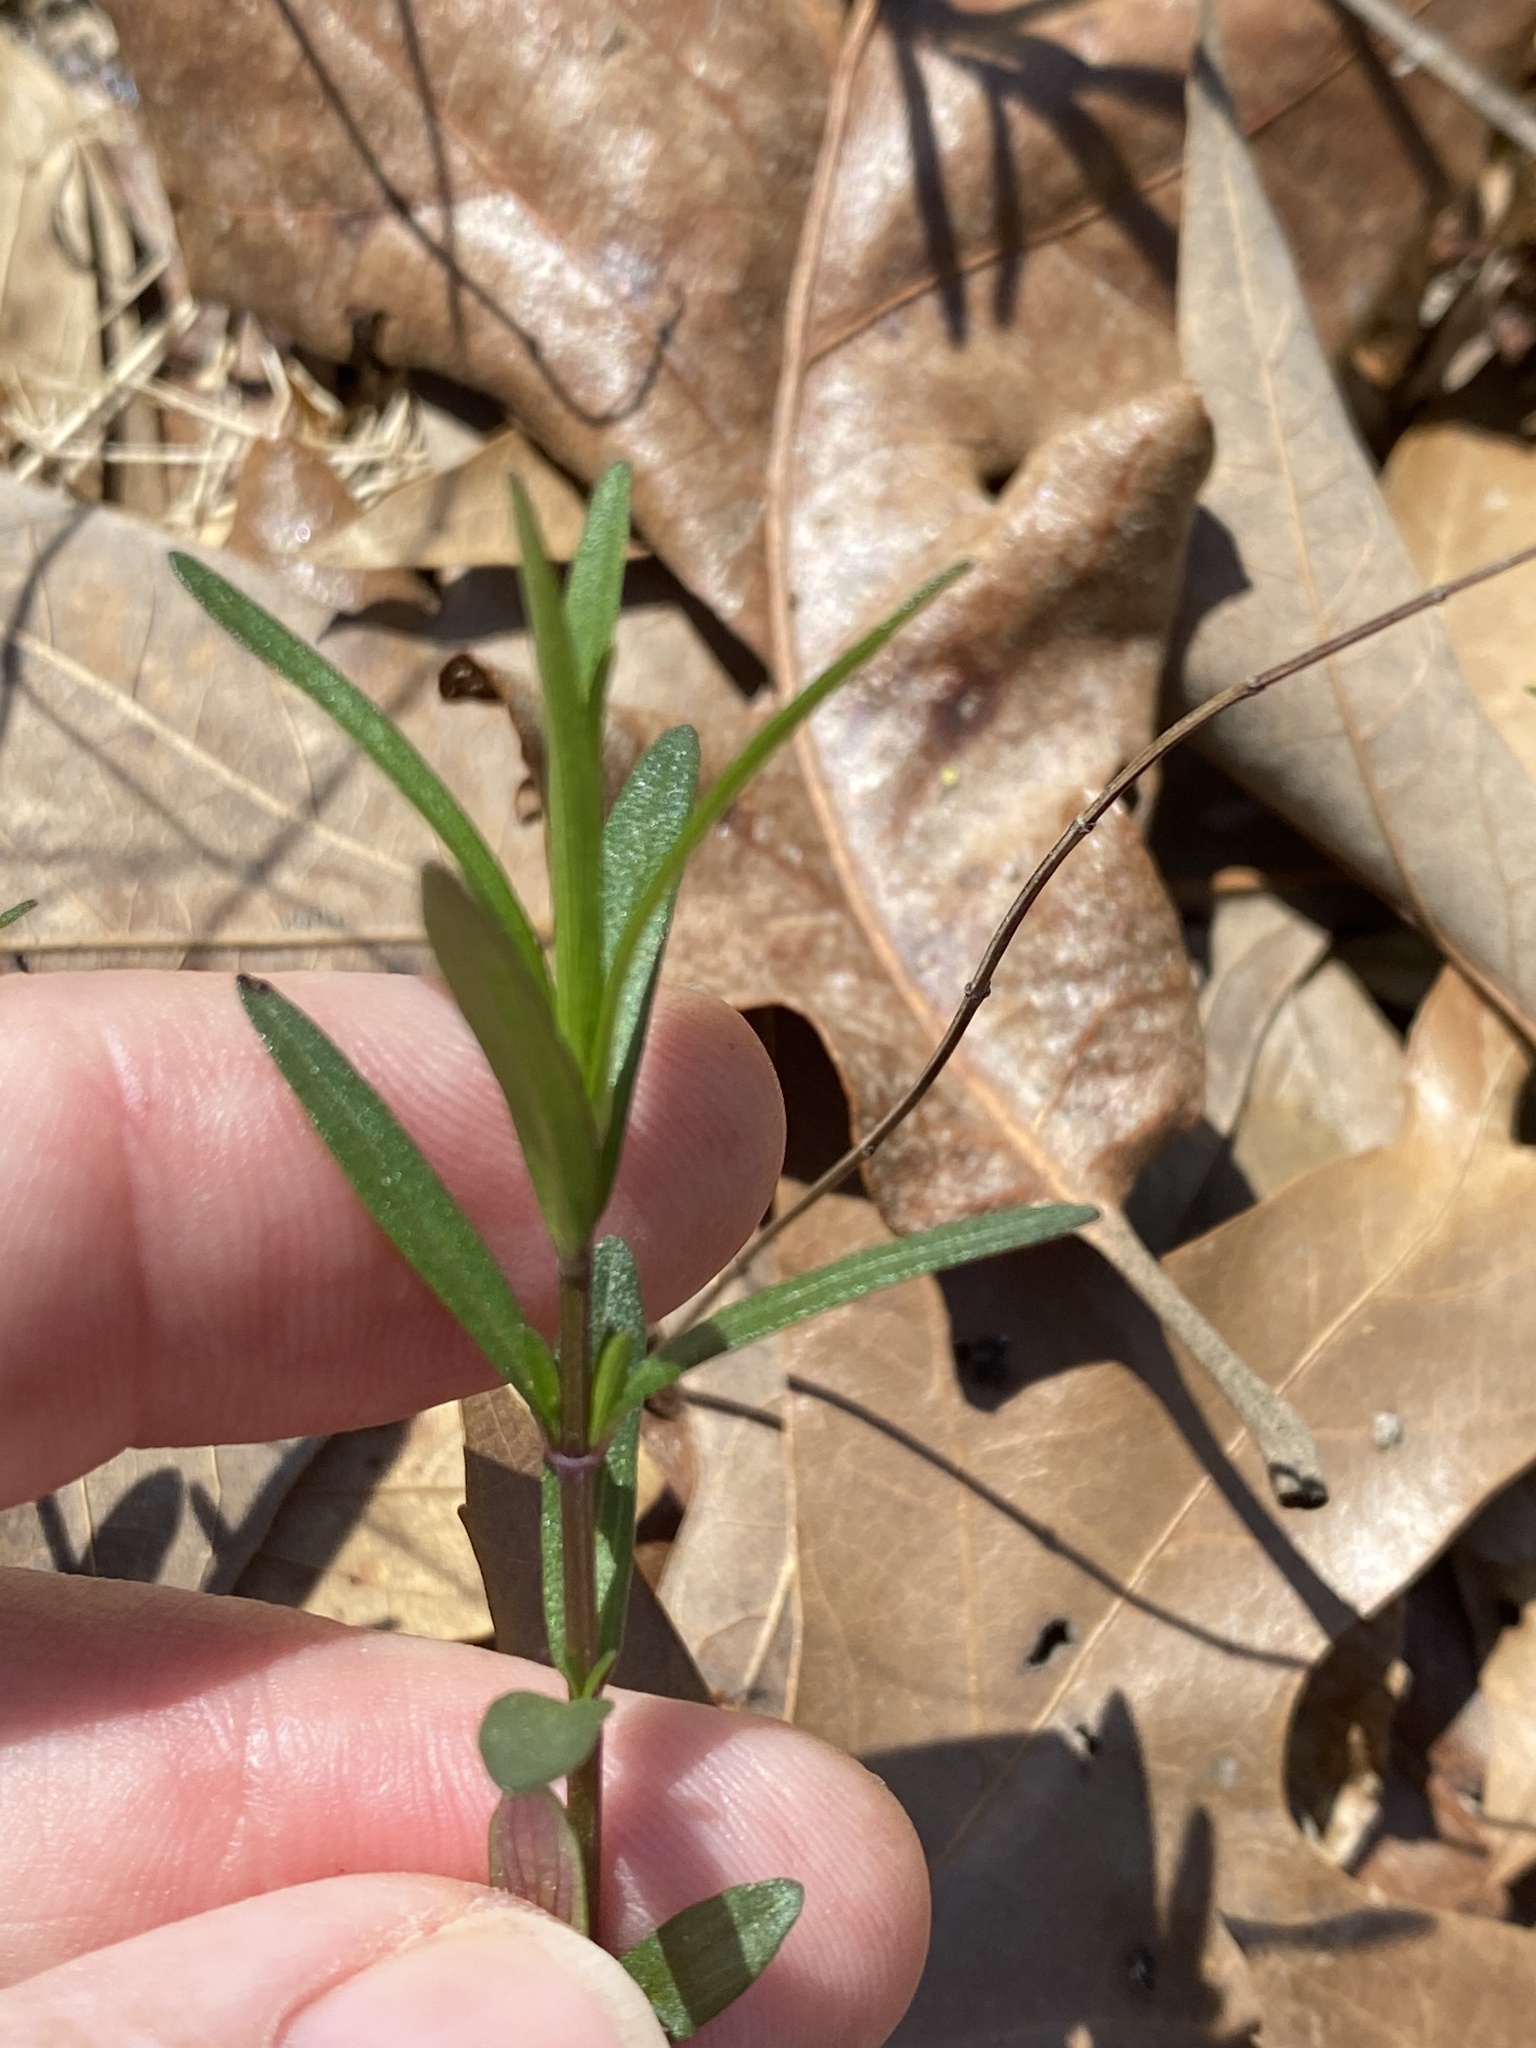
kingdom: Plantae
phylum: Tracheophyta
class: Magnoliopsida
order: Lamiales
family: Lamiaceae
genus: Pycnanthemum
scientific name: Pycnanthemum tenuifolium
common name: Narrow-leaf mountain-mint
